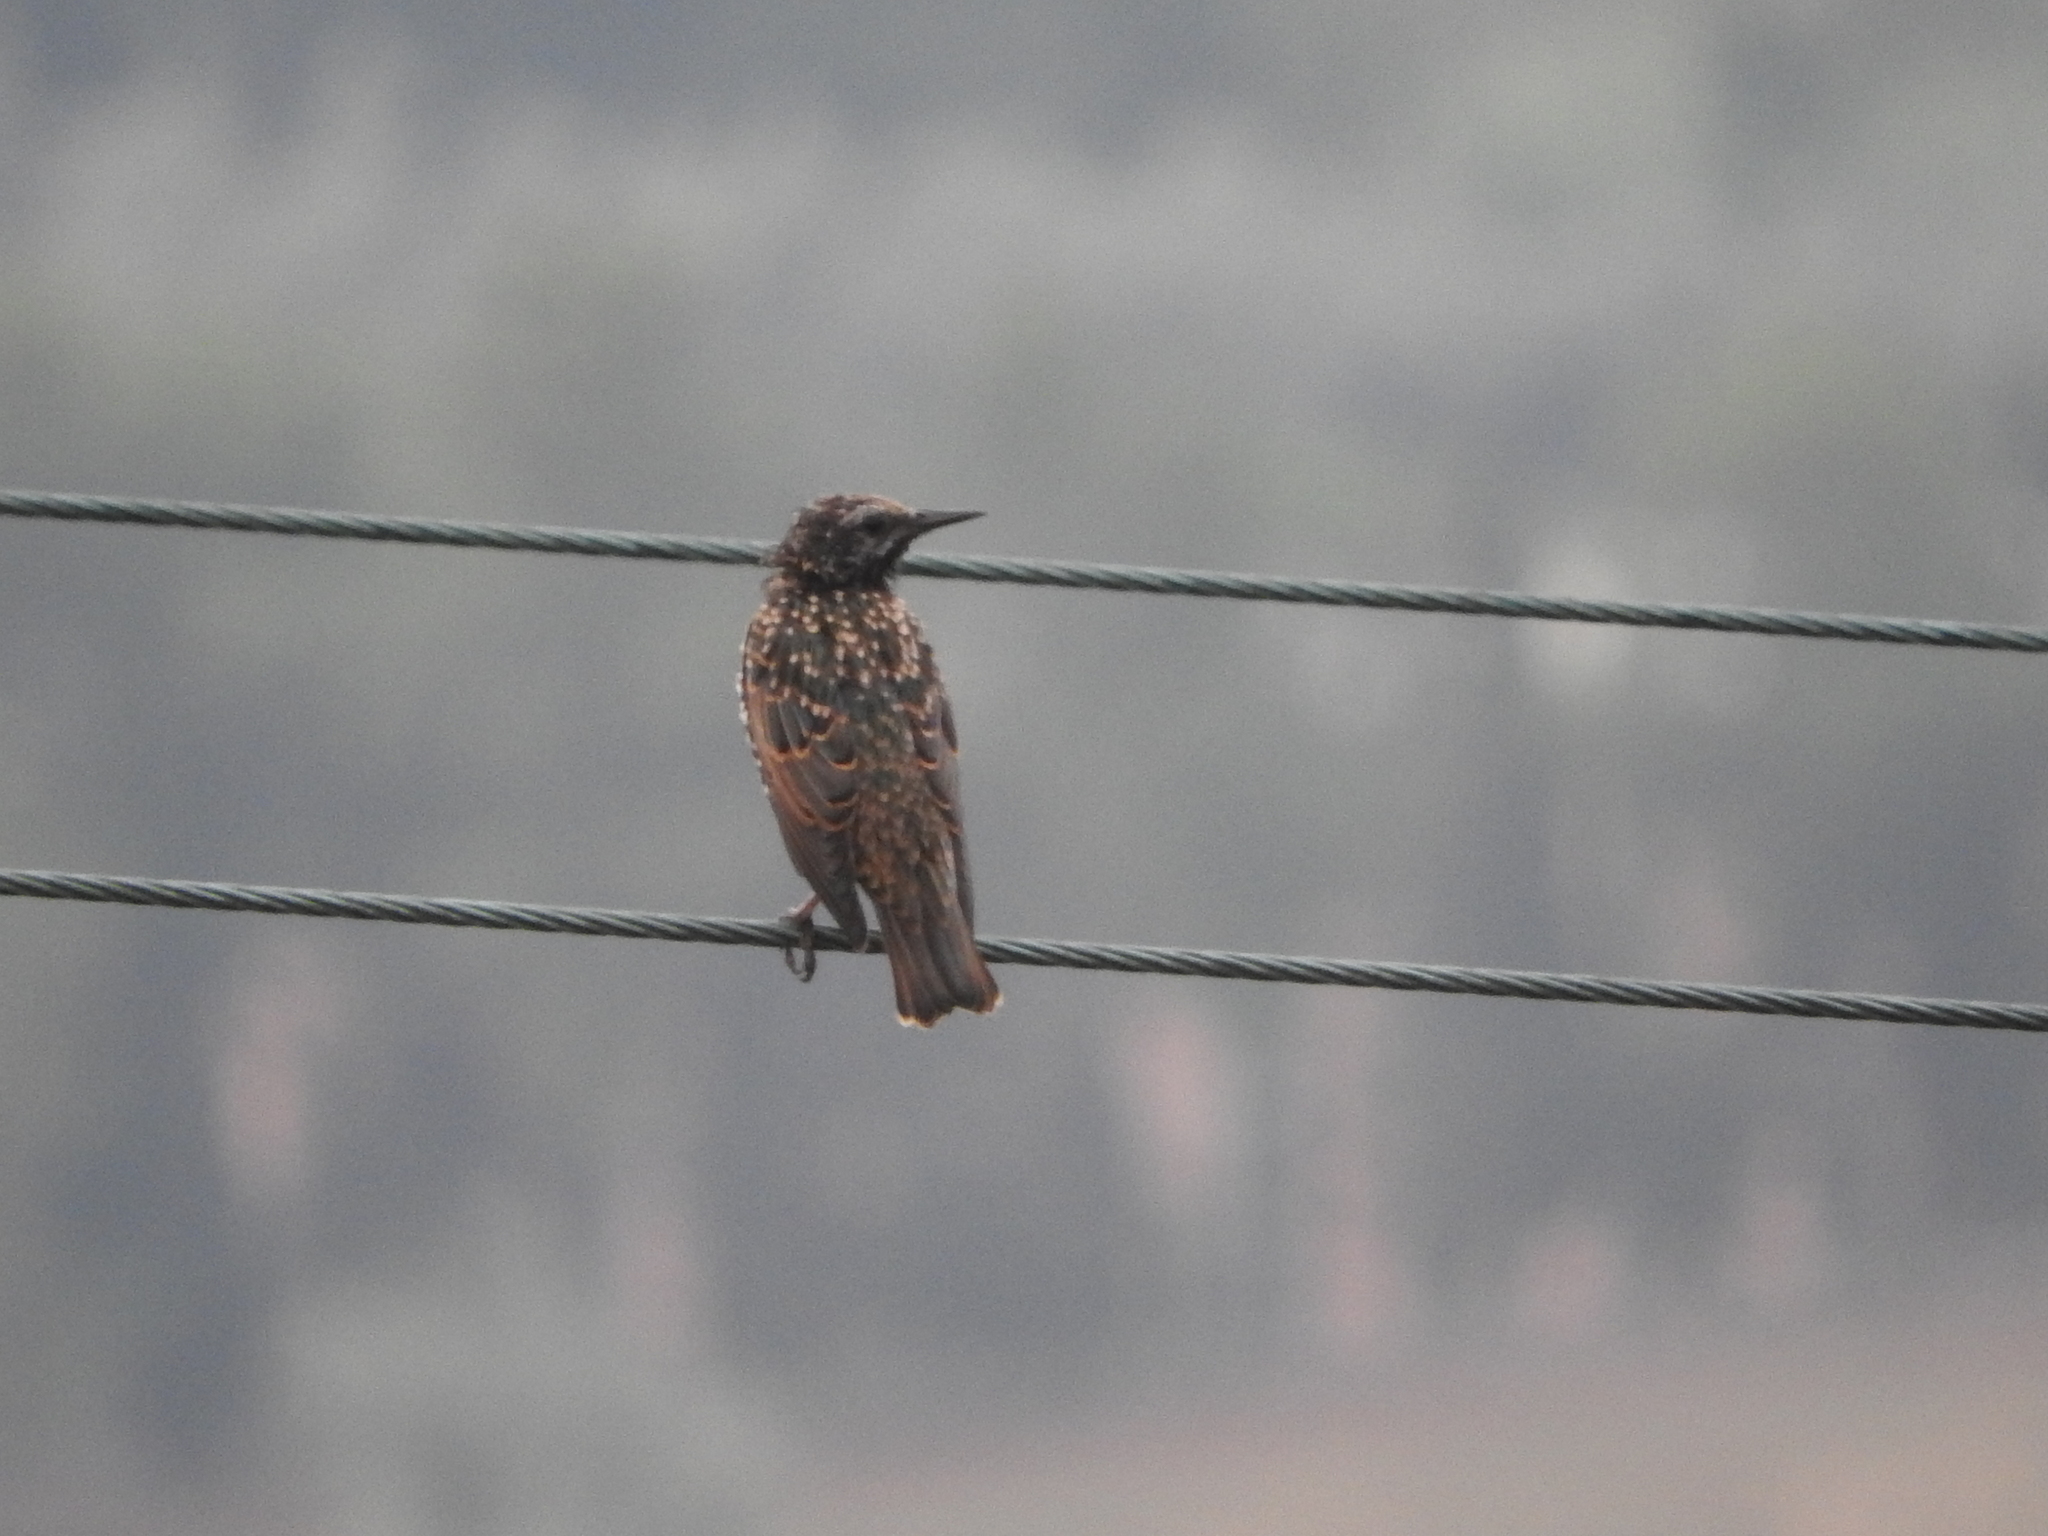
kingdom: Animalia
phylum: Chordata
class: Aves
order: Passeriformes
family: Sturnidae
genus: Sturnus
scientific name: Sturnus vulgaris
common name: Common starling
